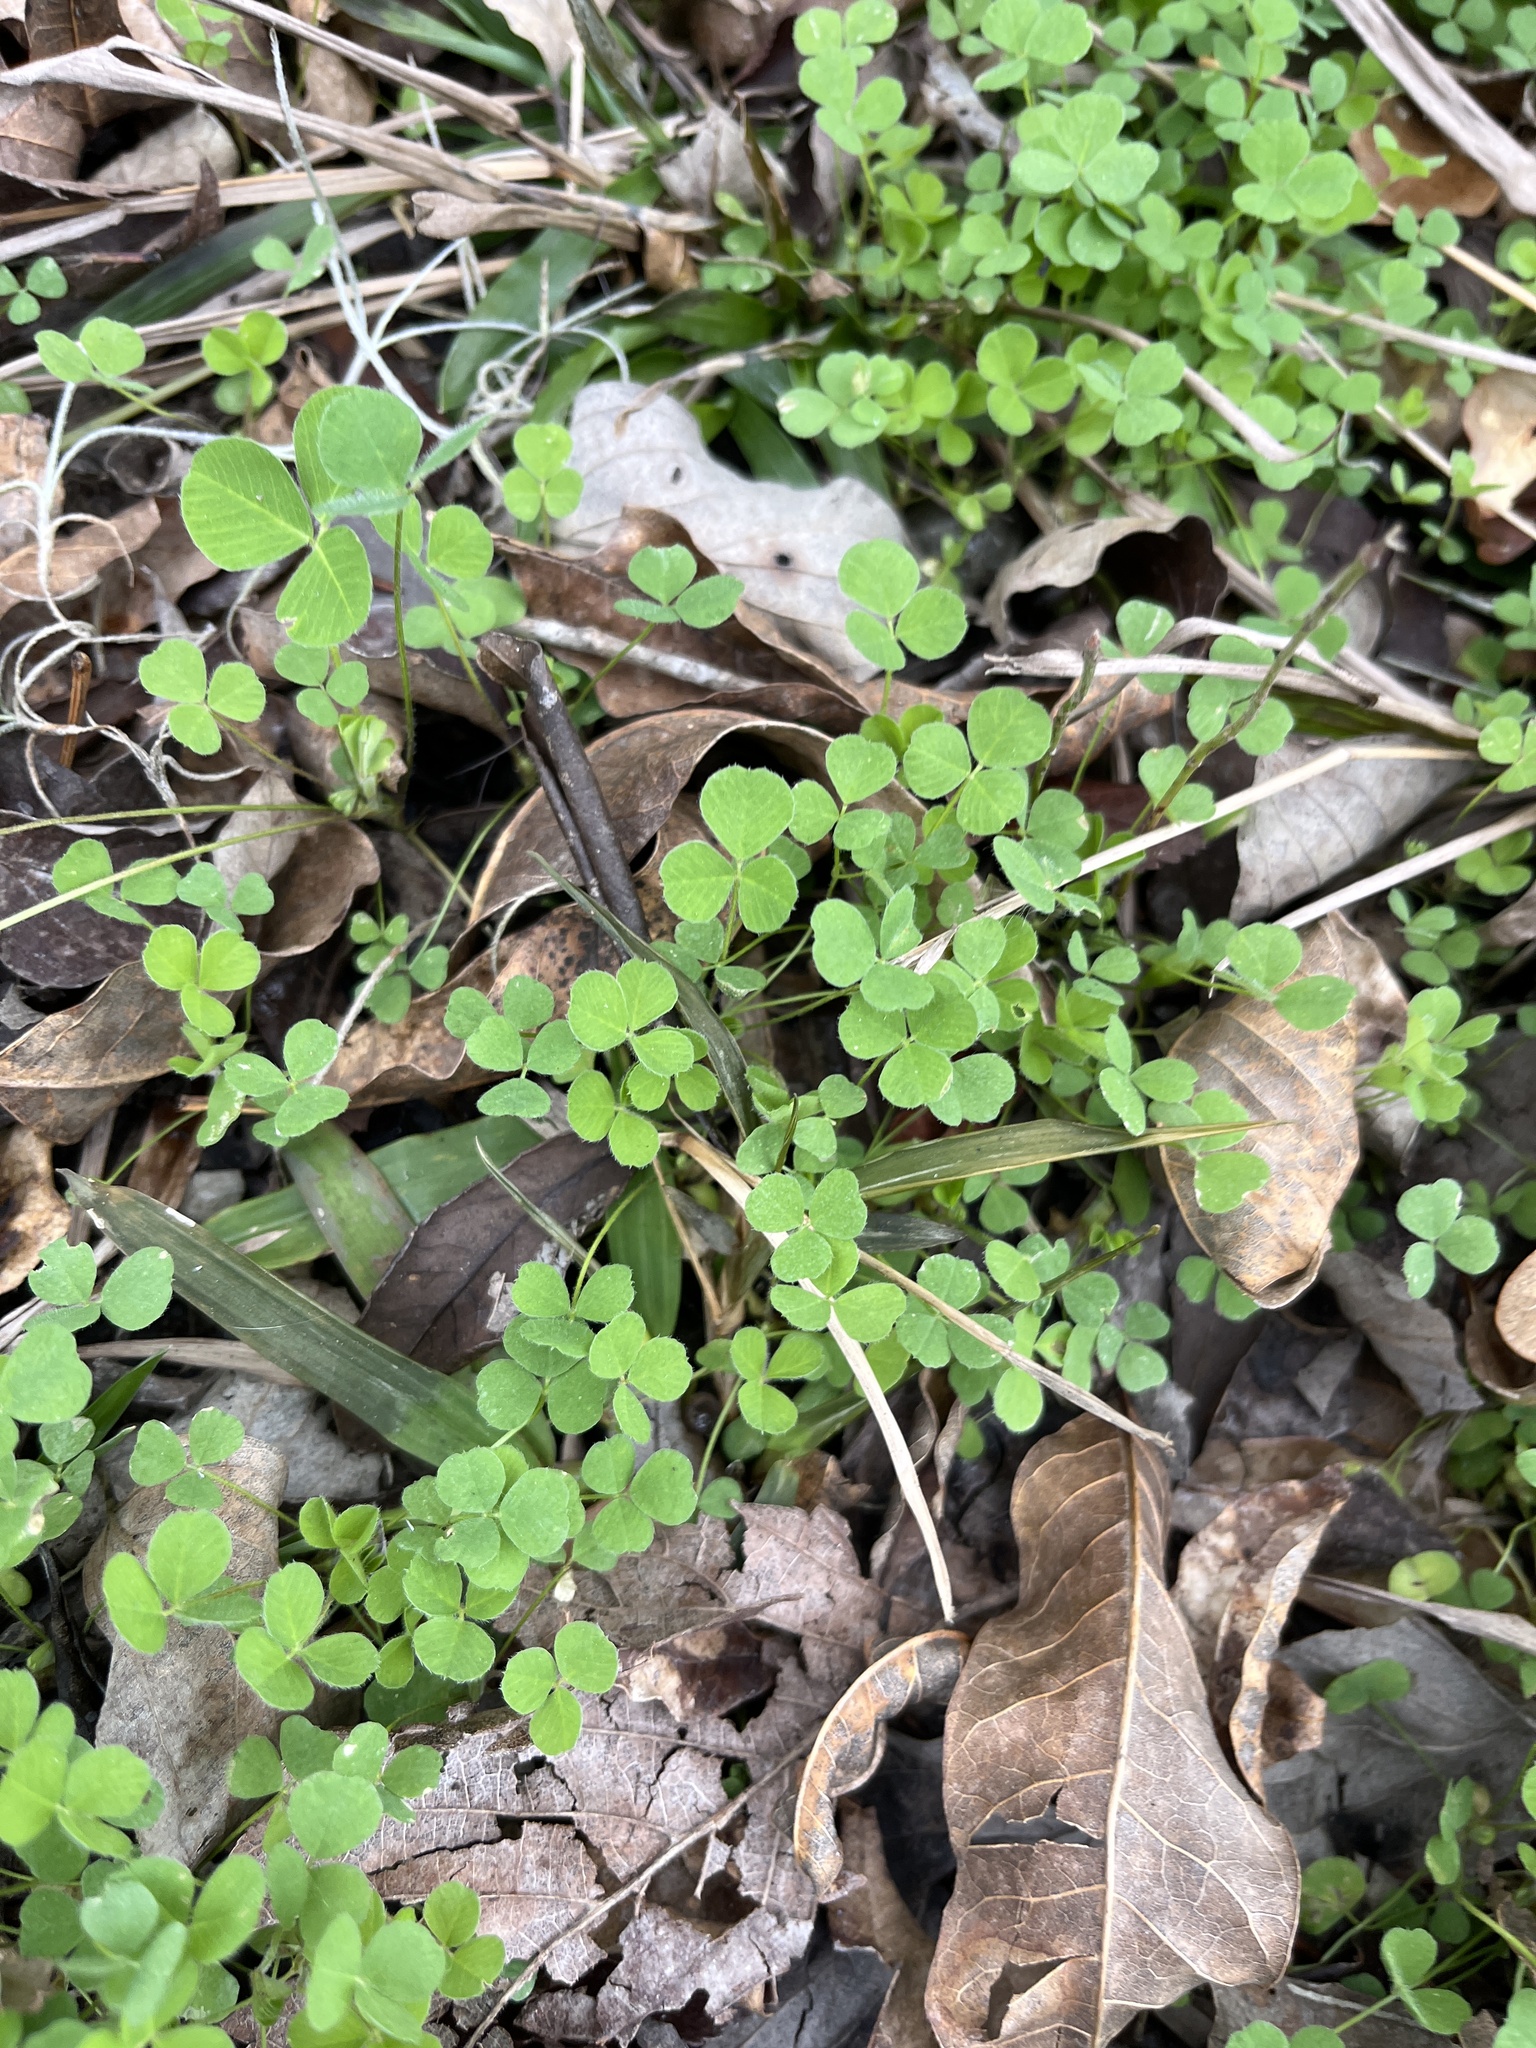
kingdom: Plantae
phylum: Tracheophyta
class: Magnoliopsida
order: Fabales
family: Fabaceae
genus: Medicago
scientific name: Medicago lupulina
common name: Black medick
